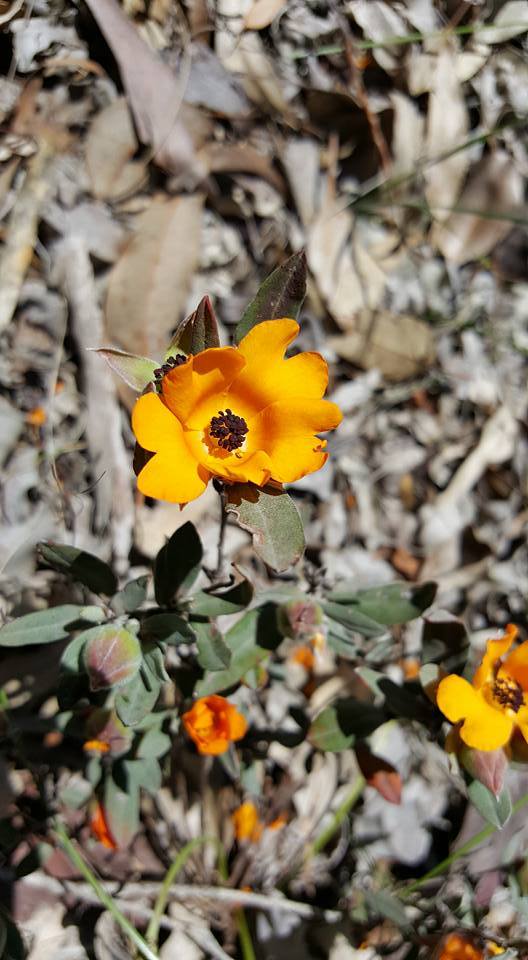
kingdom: Plantae
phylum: Tracheophyta
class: Magnoliopsida
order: Dilleniales
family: Dilleniaceae
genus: Hibbertia
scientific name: Hibbertia miniata
